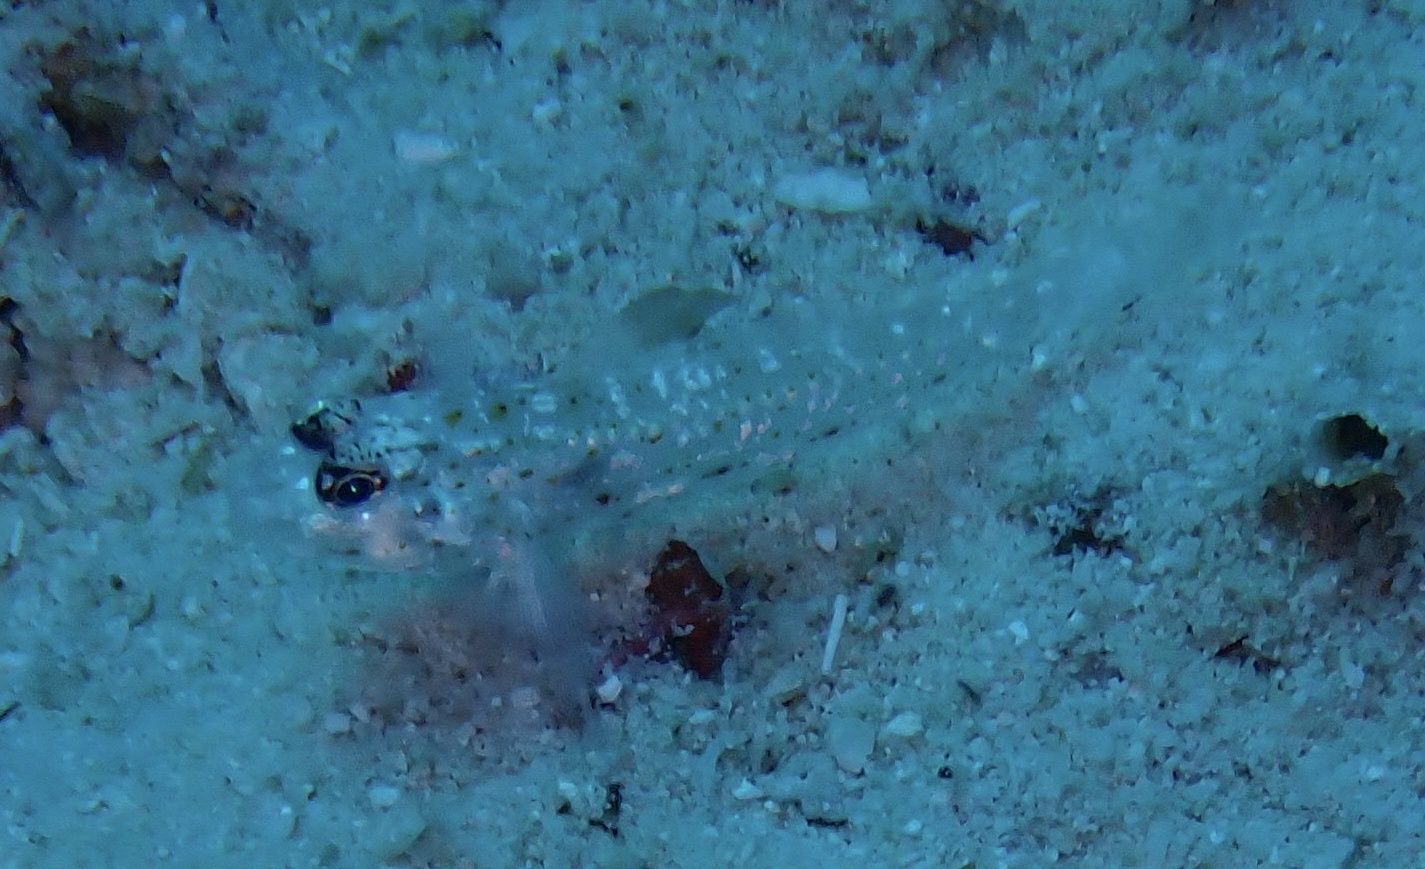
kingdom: Animalia
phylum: Chordata
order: Perciformes
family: Gobiidae
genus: Fusigobius
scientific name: Fusigobius melacron
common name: Blacktip sandgoby
